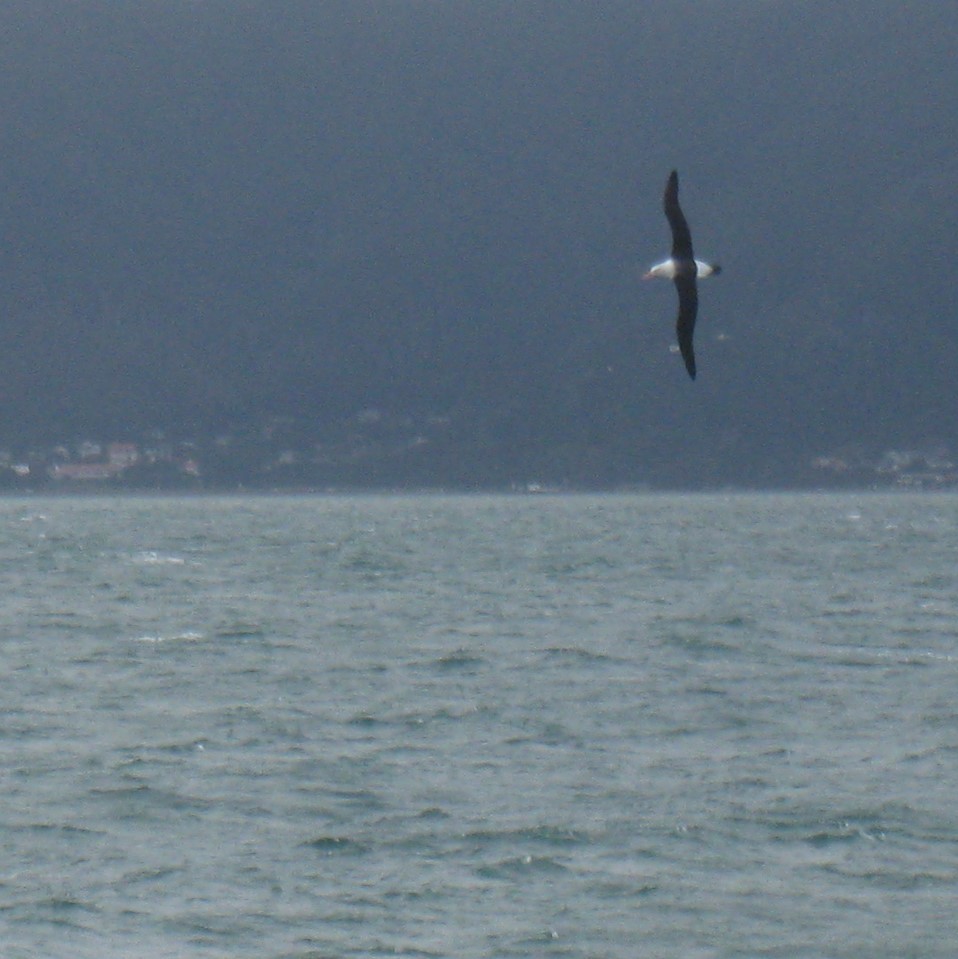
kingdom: Animalia
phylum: Chordata
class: Aves
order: Procellariiformes
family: Diomedeidae
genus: Thalassarche
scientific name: Thalassarche melanophris
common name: Black-browed albatross
